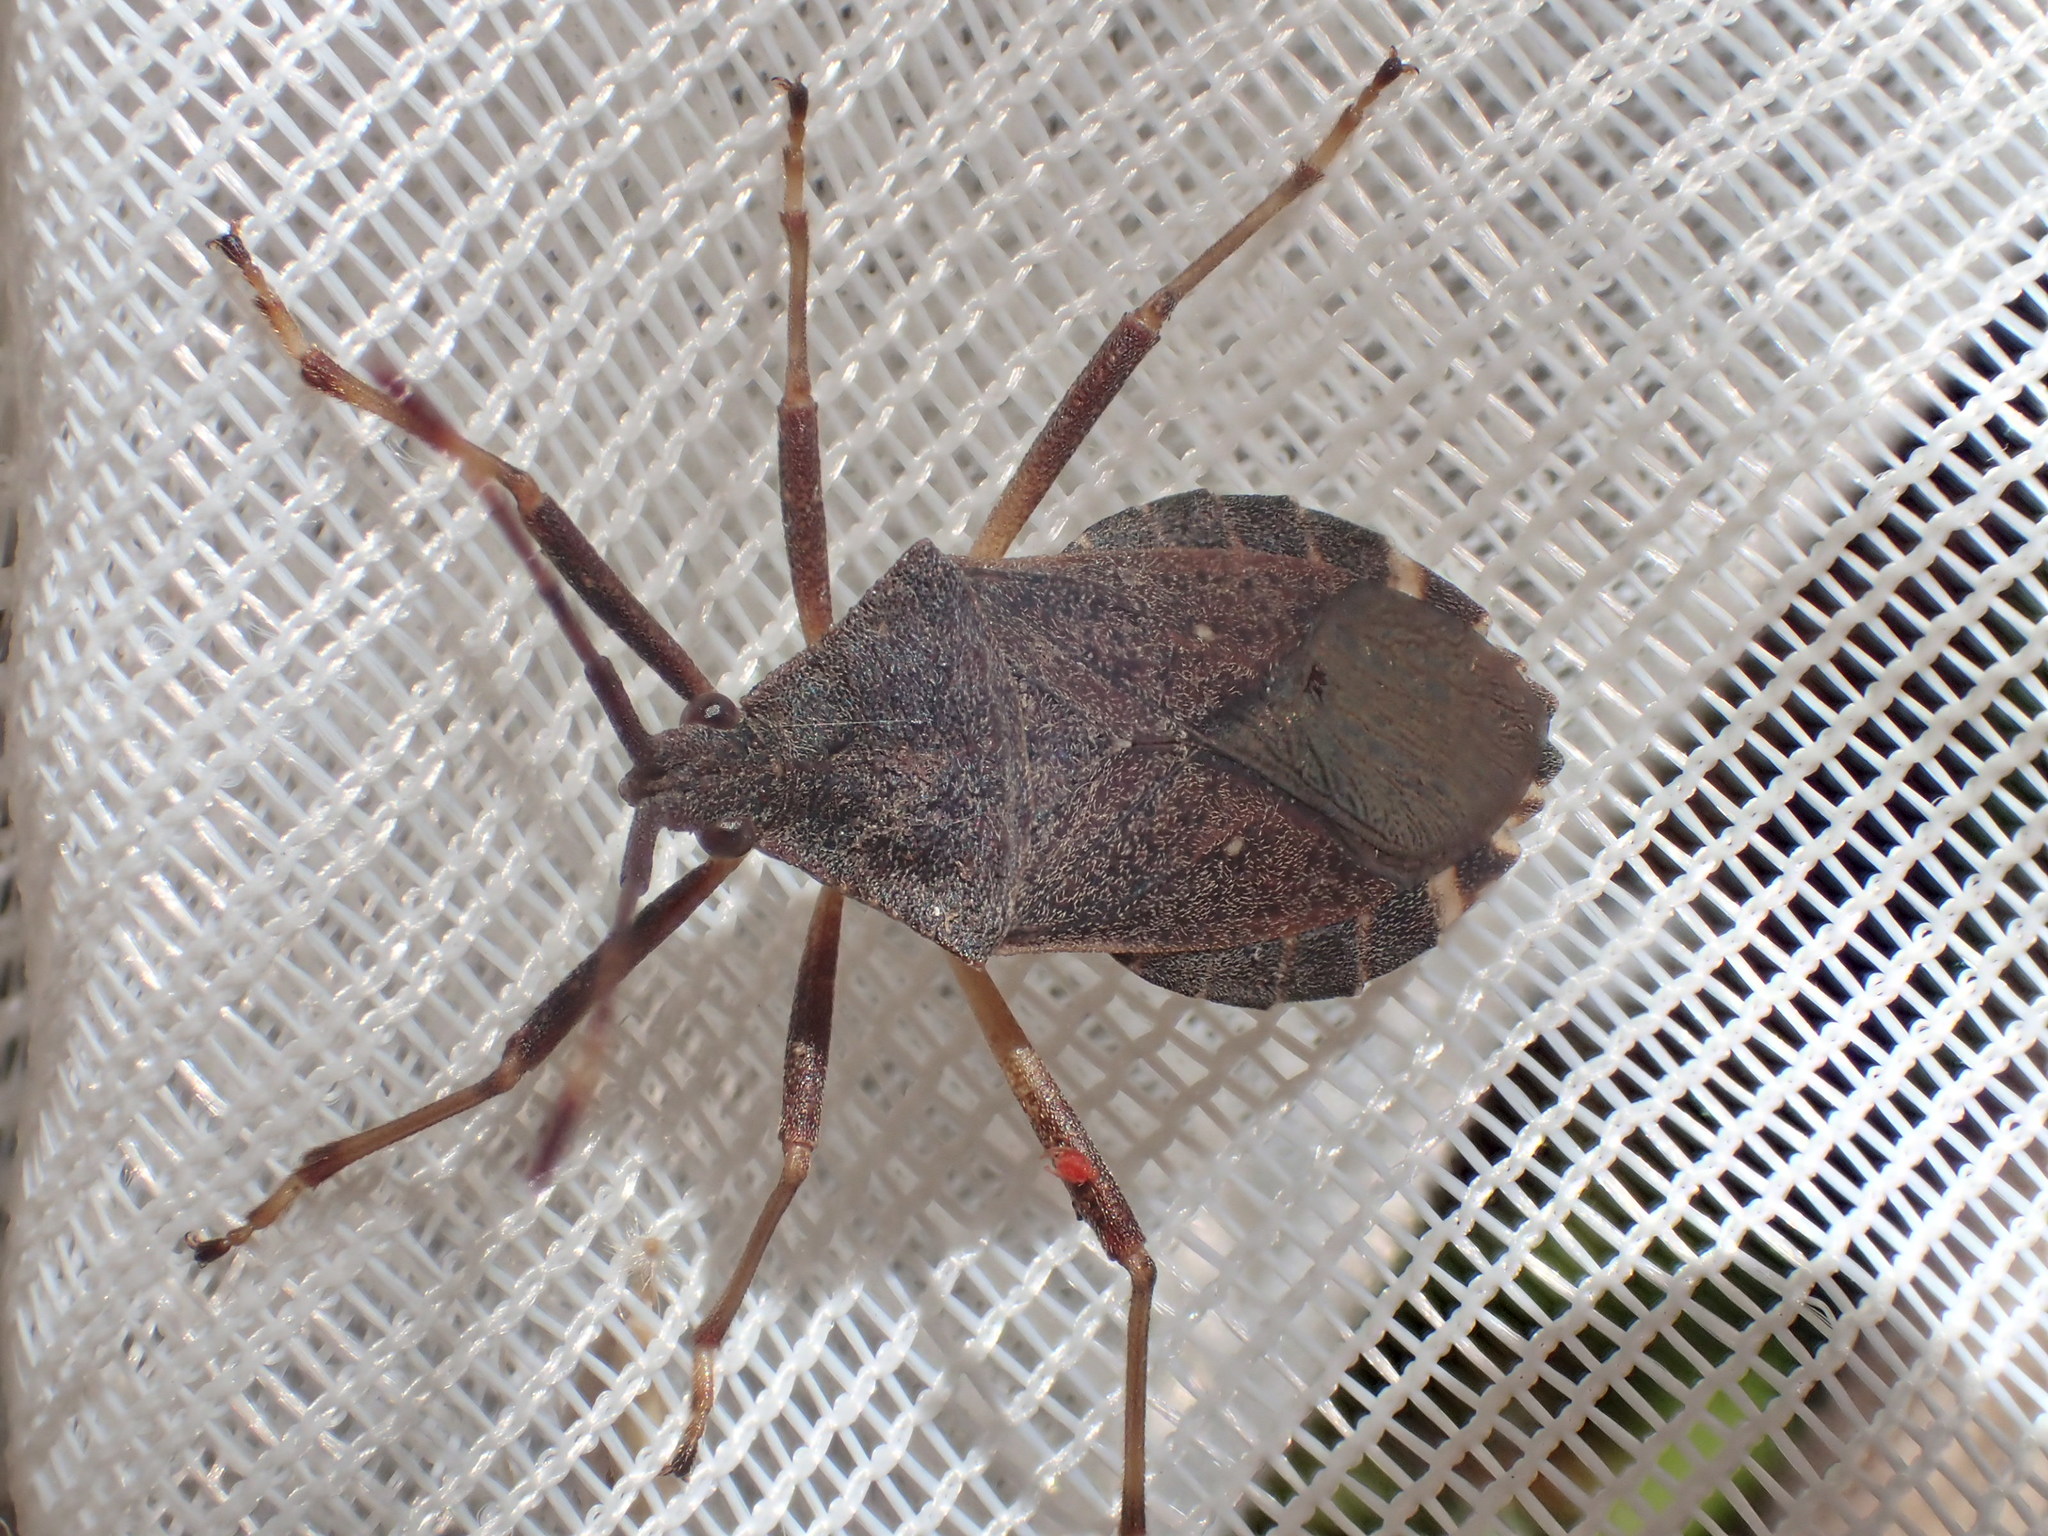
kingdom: Animalia
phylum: Arthropoda
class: Insecta
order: Hemiptera
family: Coreidae
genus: Gelonus
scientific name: Gelonus tasmanicus
